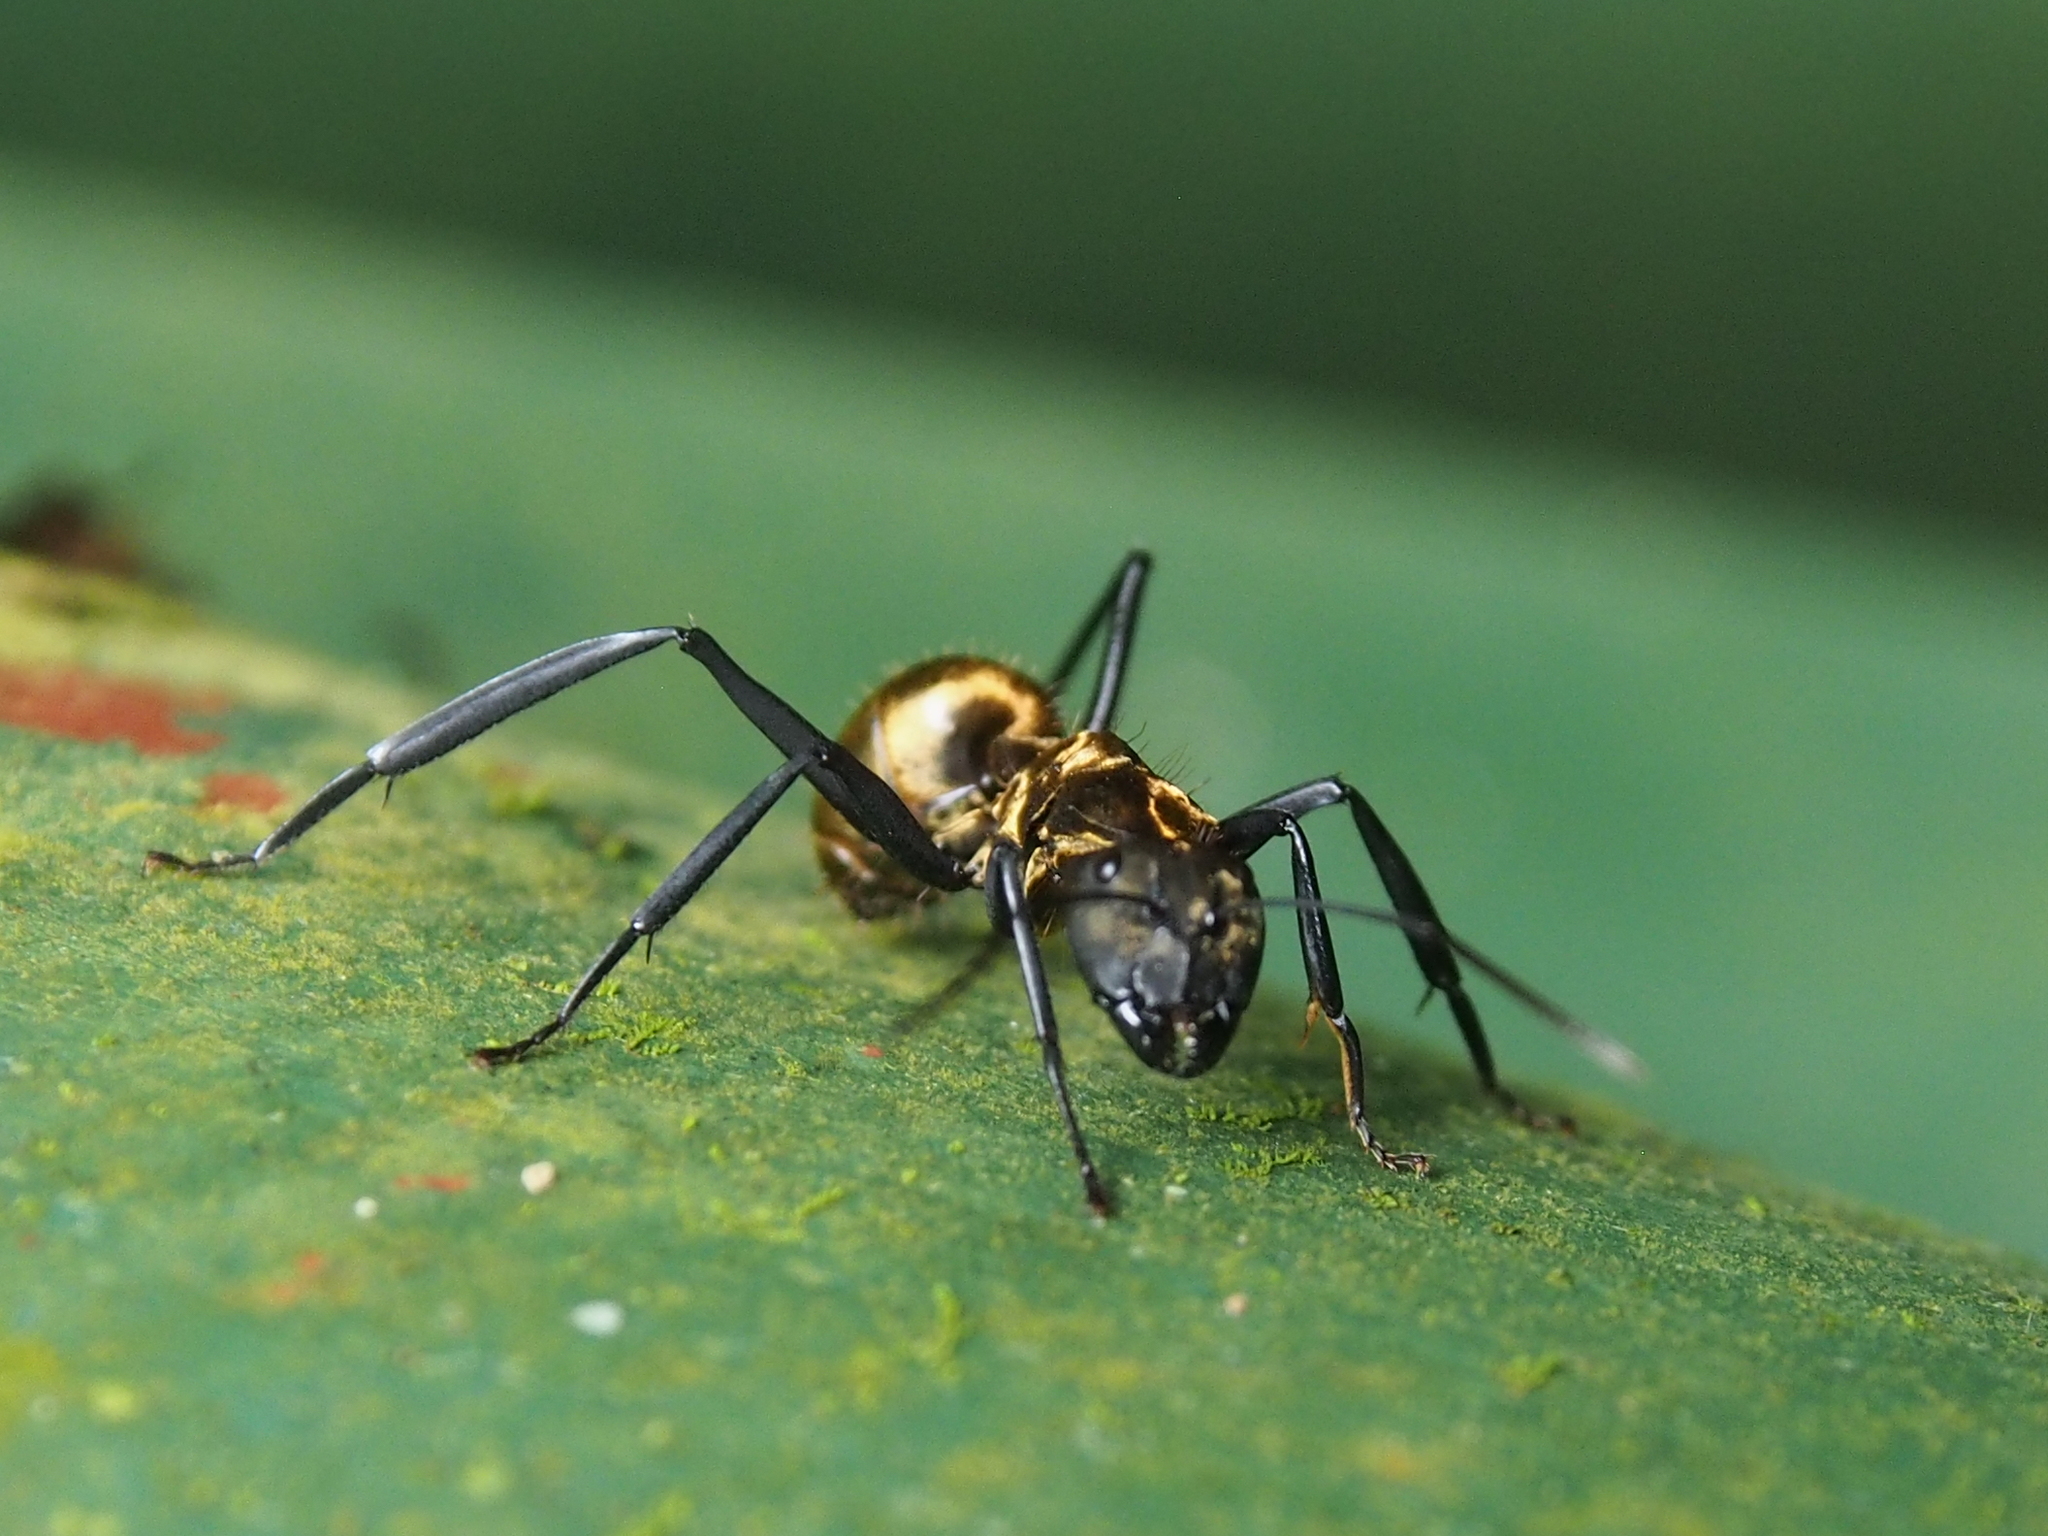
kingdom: Animalia
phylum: Arthropoda
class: Insecta
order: Hymenoptera
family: Formicidae
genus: Camponotus
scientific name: Camponotus sericeiventris
